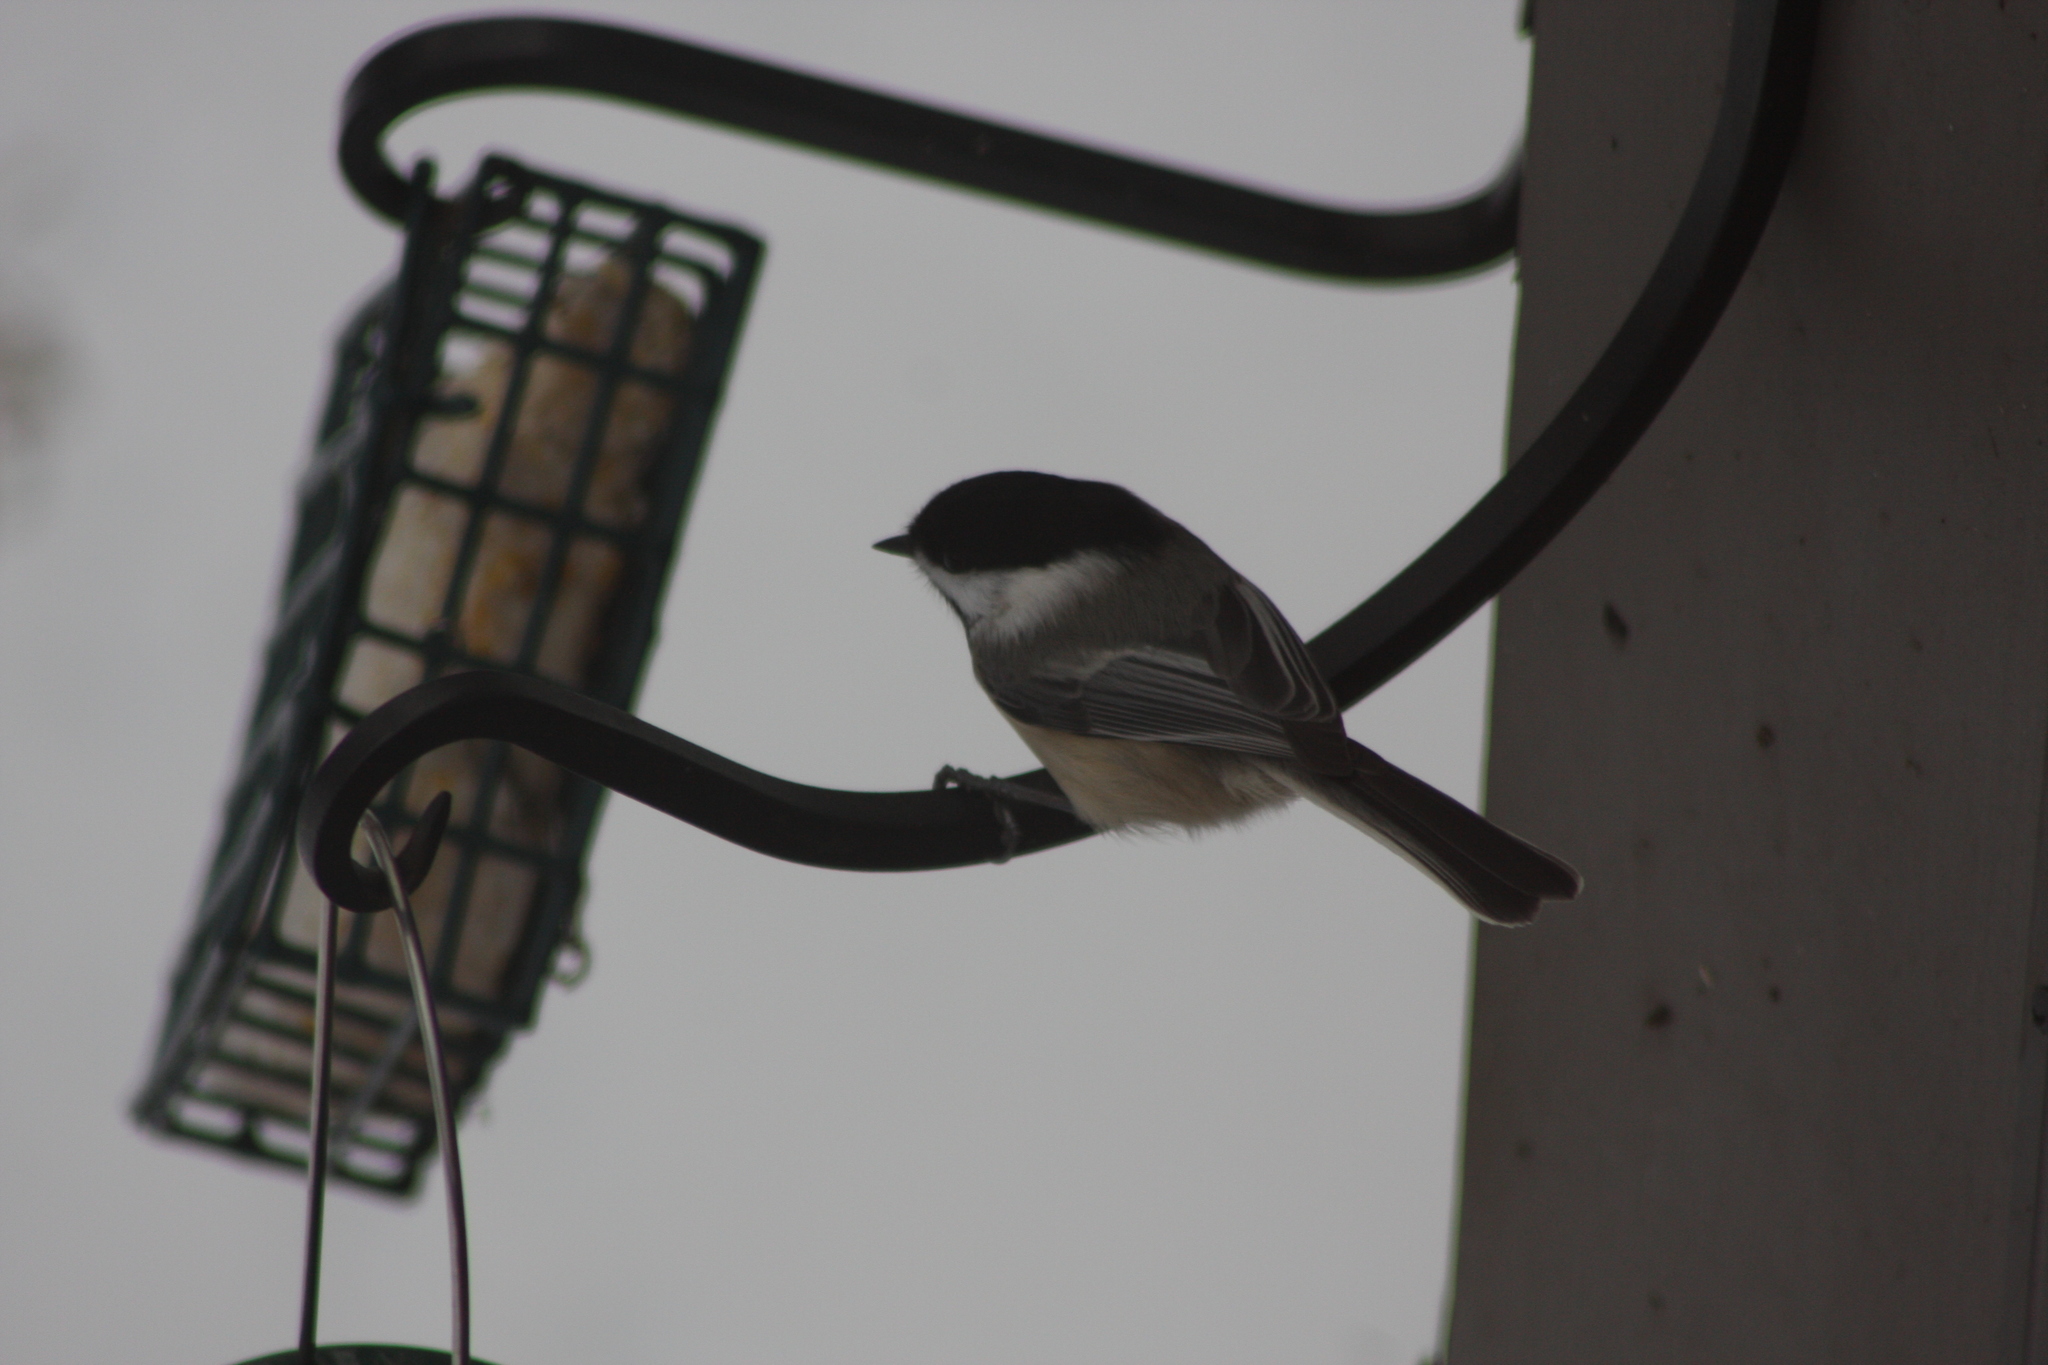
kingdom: Animalia
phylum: Chordata
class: Aves
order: Passeriformes
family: Paridae
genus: Poecile
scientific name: Poecile atricapillus
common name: Black-capped chickadee
